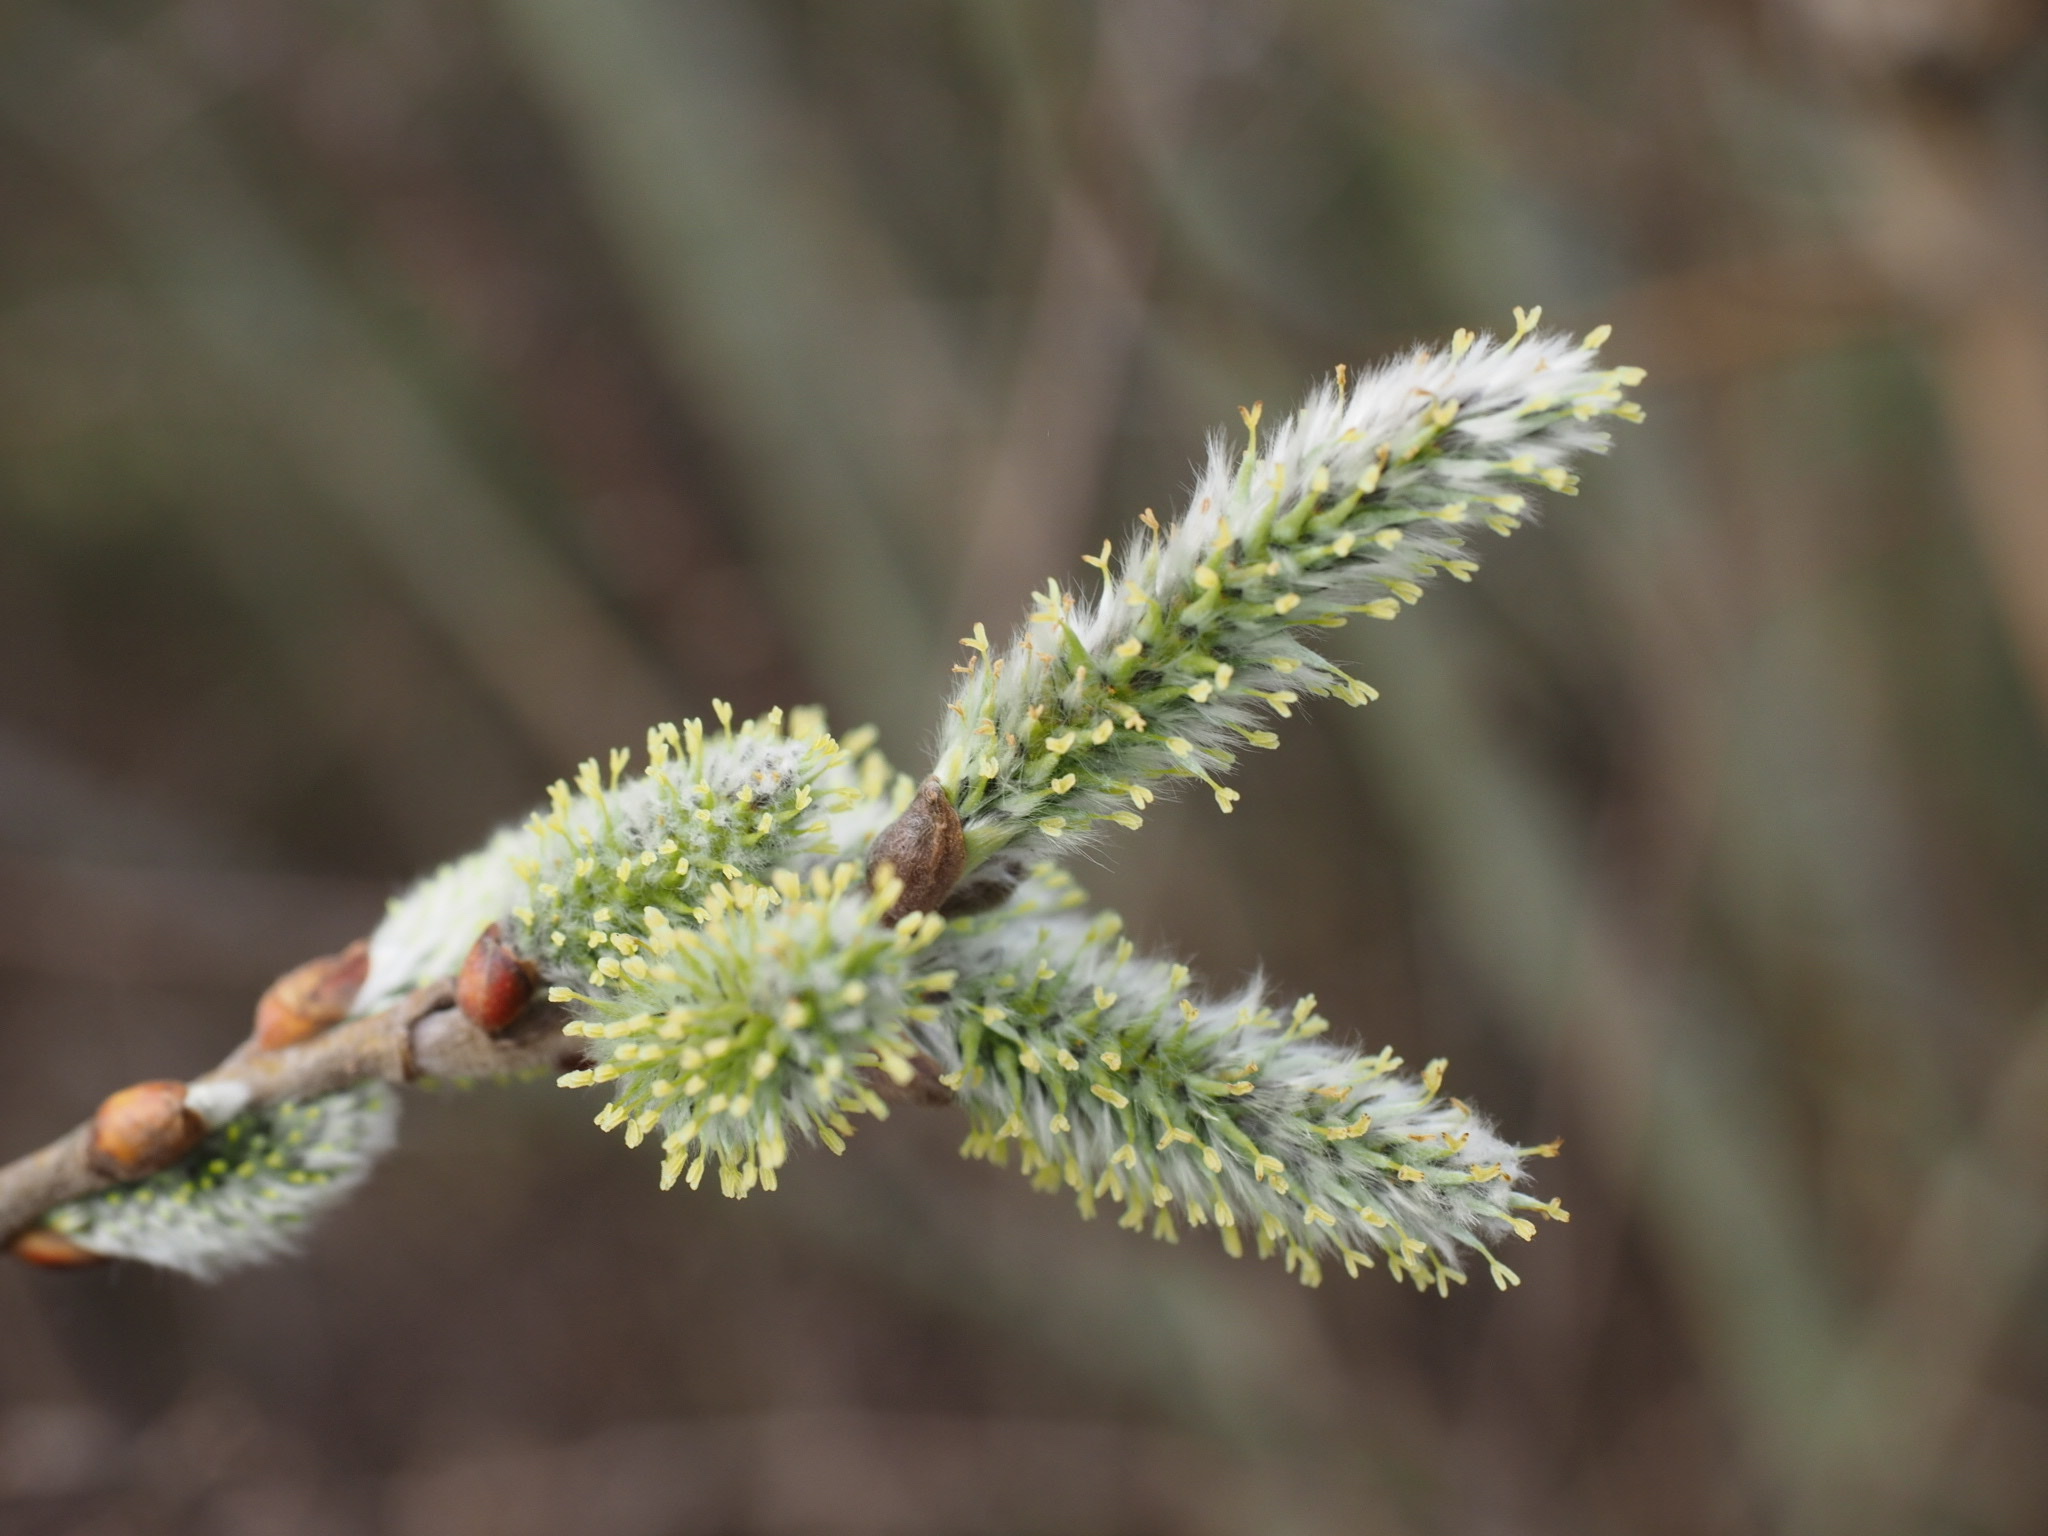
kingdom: Plantae
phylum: Tracheophyta
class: Magnoliopsida
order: Malpighiales
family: Salicaceae
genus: Salix
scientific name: Salix caprea
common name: Goat willow
